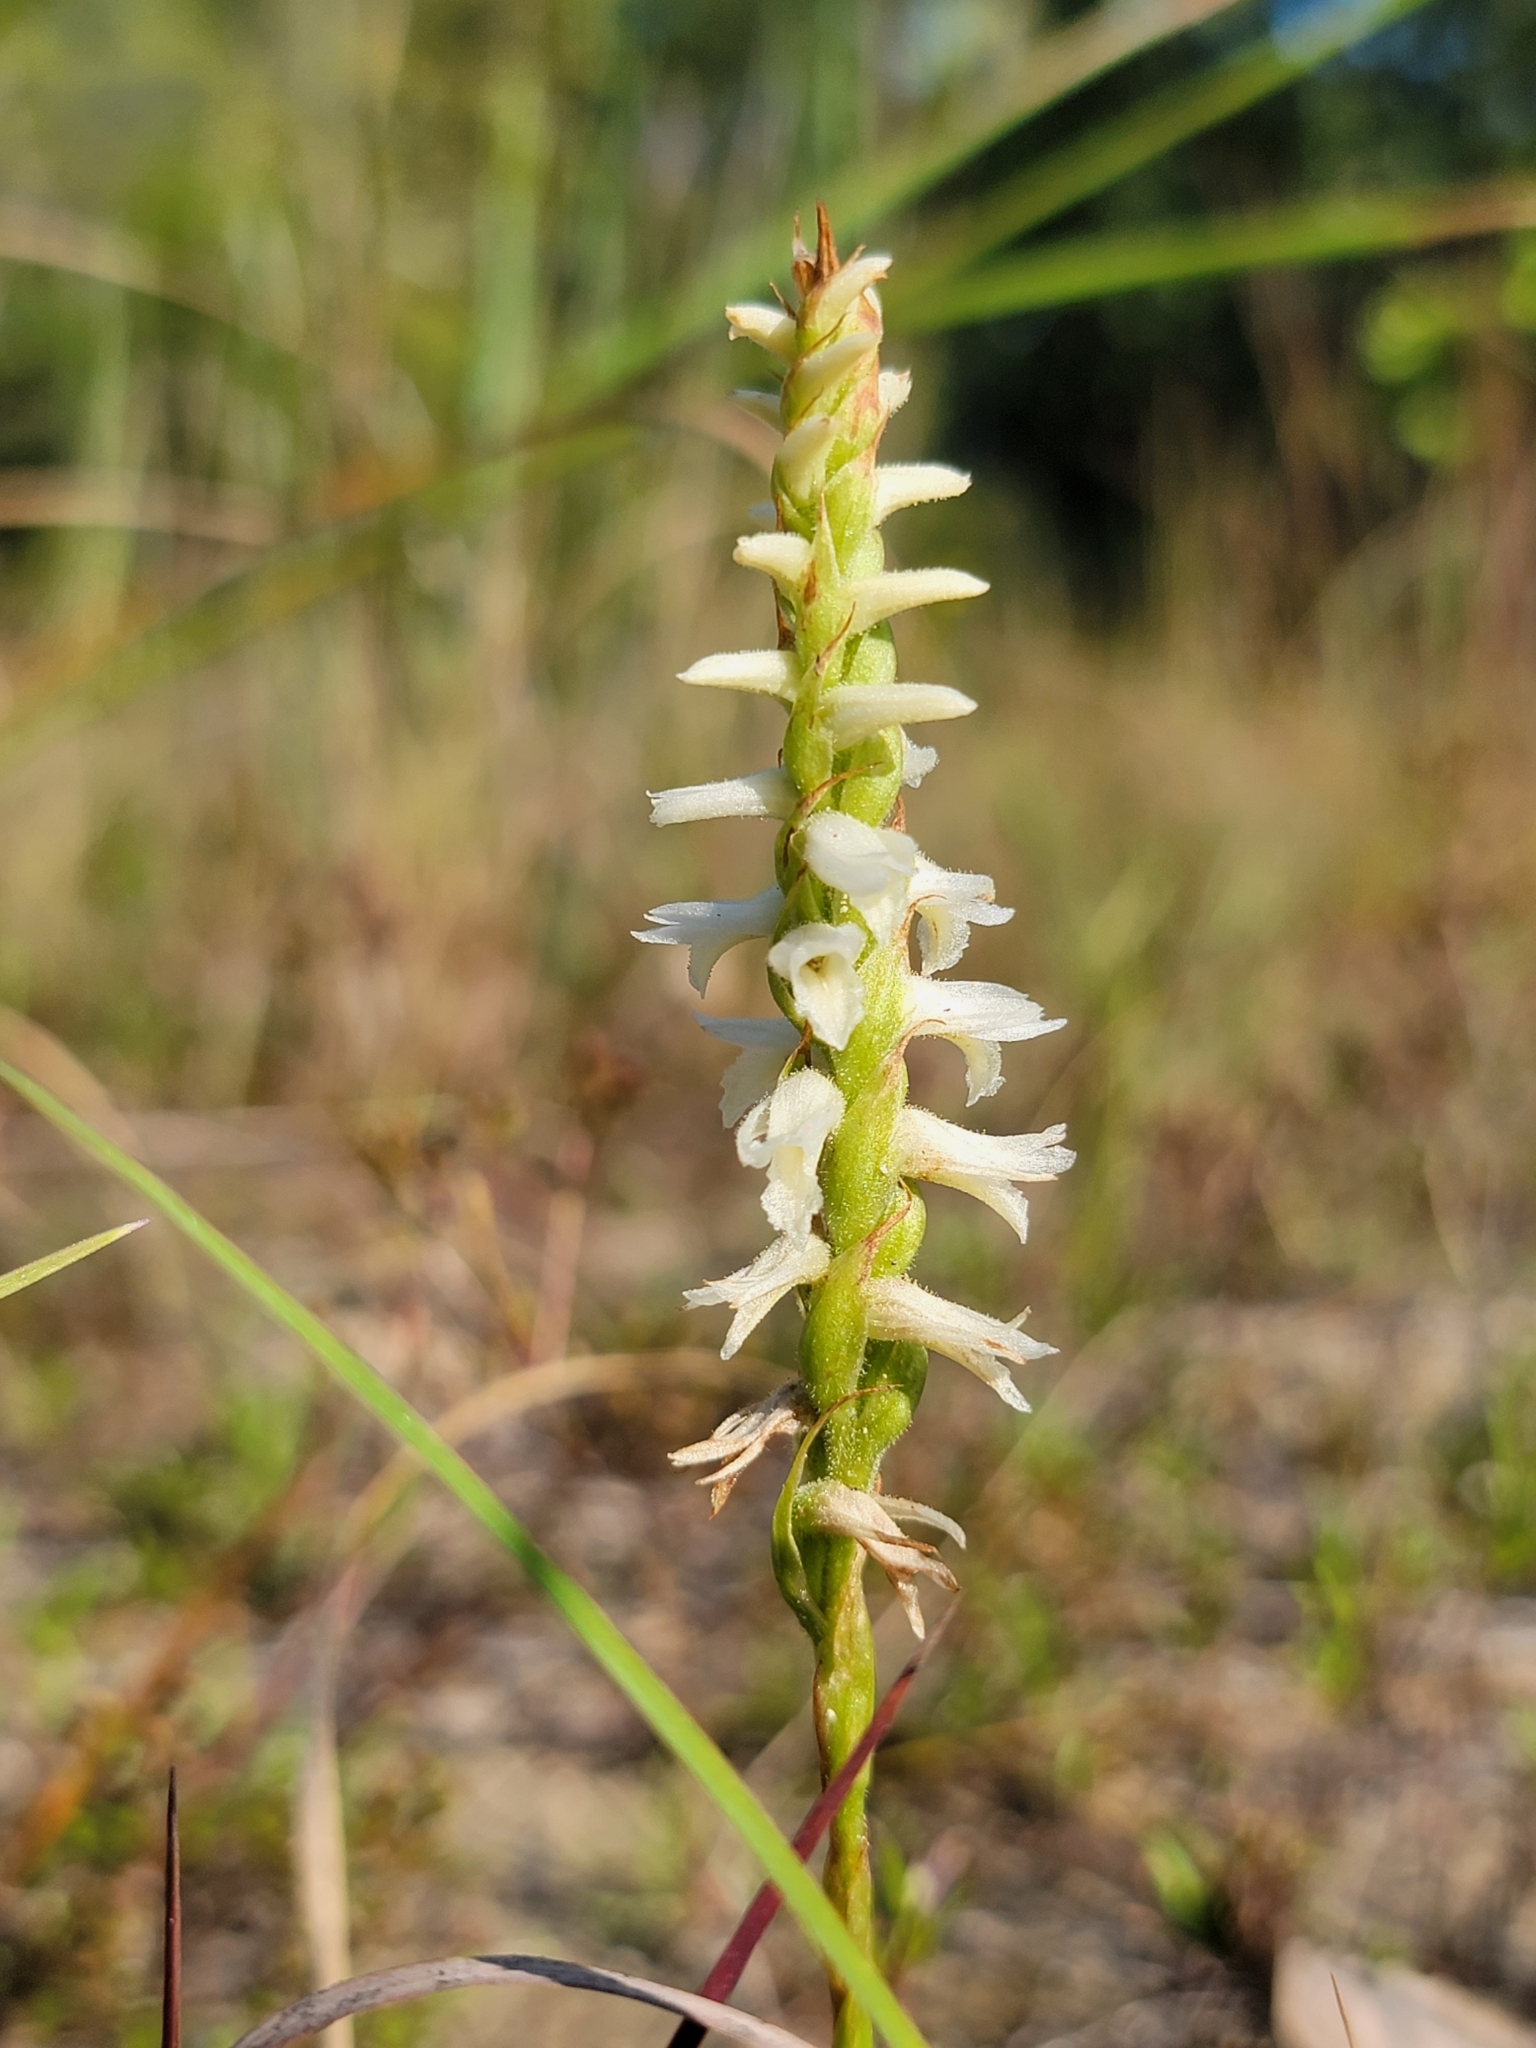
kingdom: Plantae
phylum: Tracheophyta
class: Liliopsida
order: Asparagales
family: Orchidaceae
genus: Spiranthes
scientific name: Spiranthes magnicamporum
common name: Great plains ladies'-tresses
